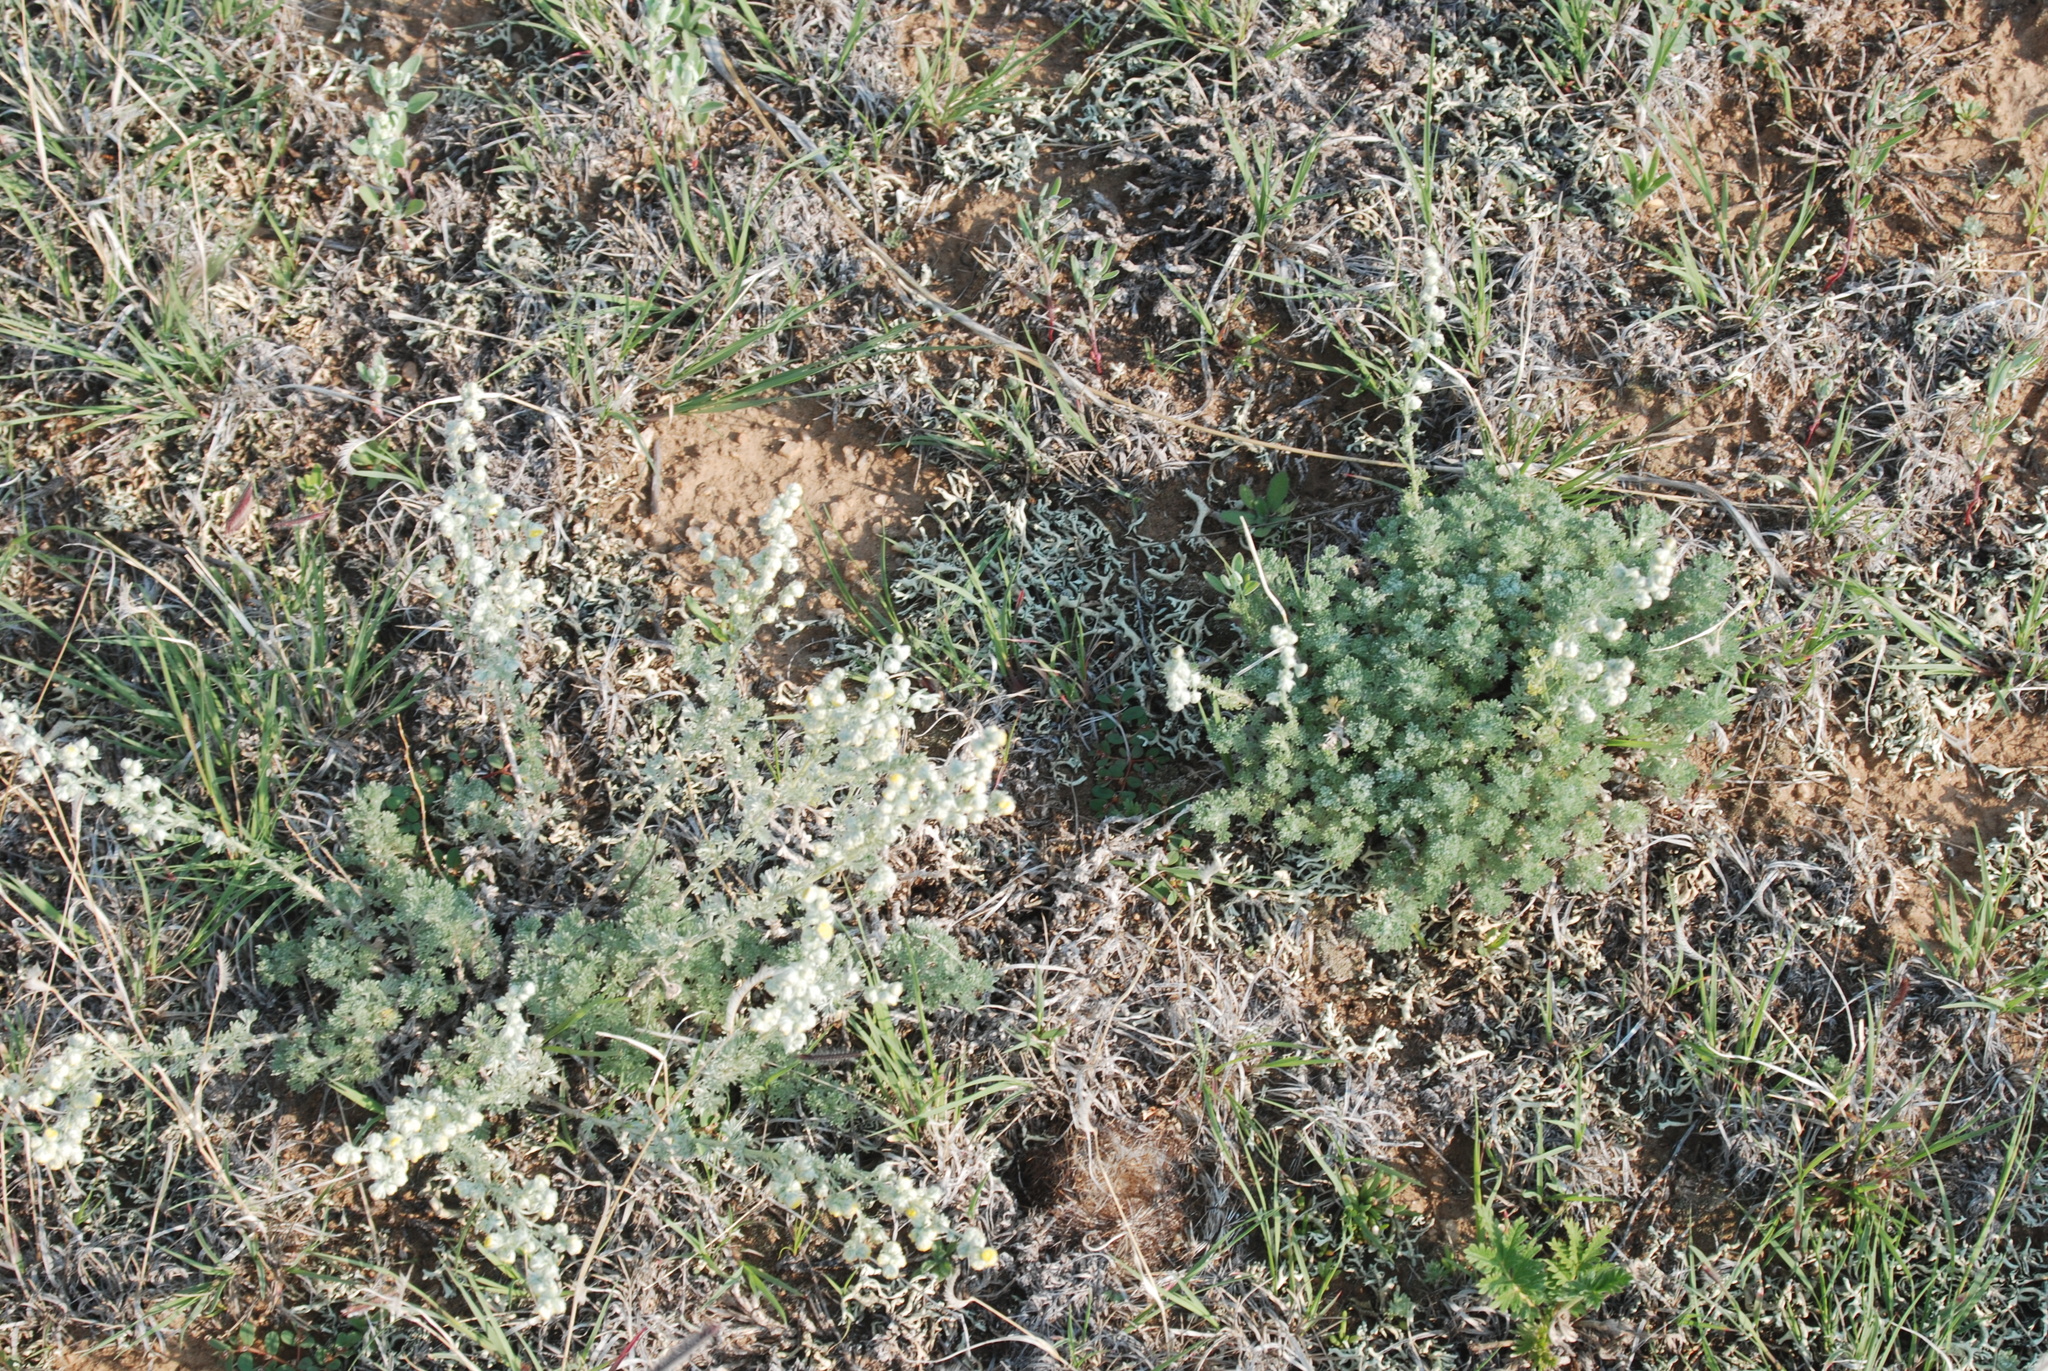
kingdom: Plantae
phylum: Tracheophyta
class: Magnoliopsida
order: Asterales
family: Asteraceae
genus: Artemisia
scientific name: Artemisia frigida
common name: Prairie sagewort
